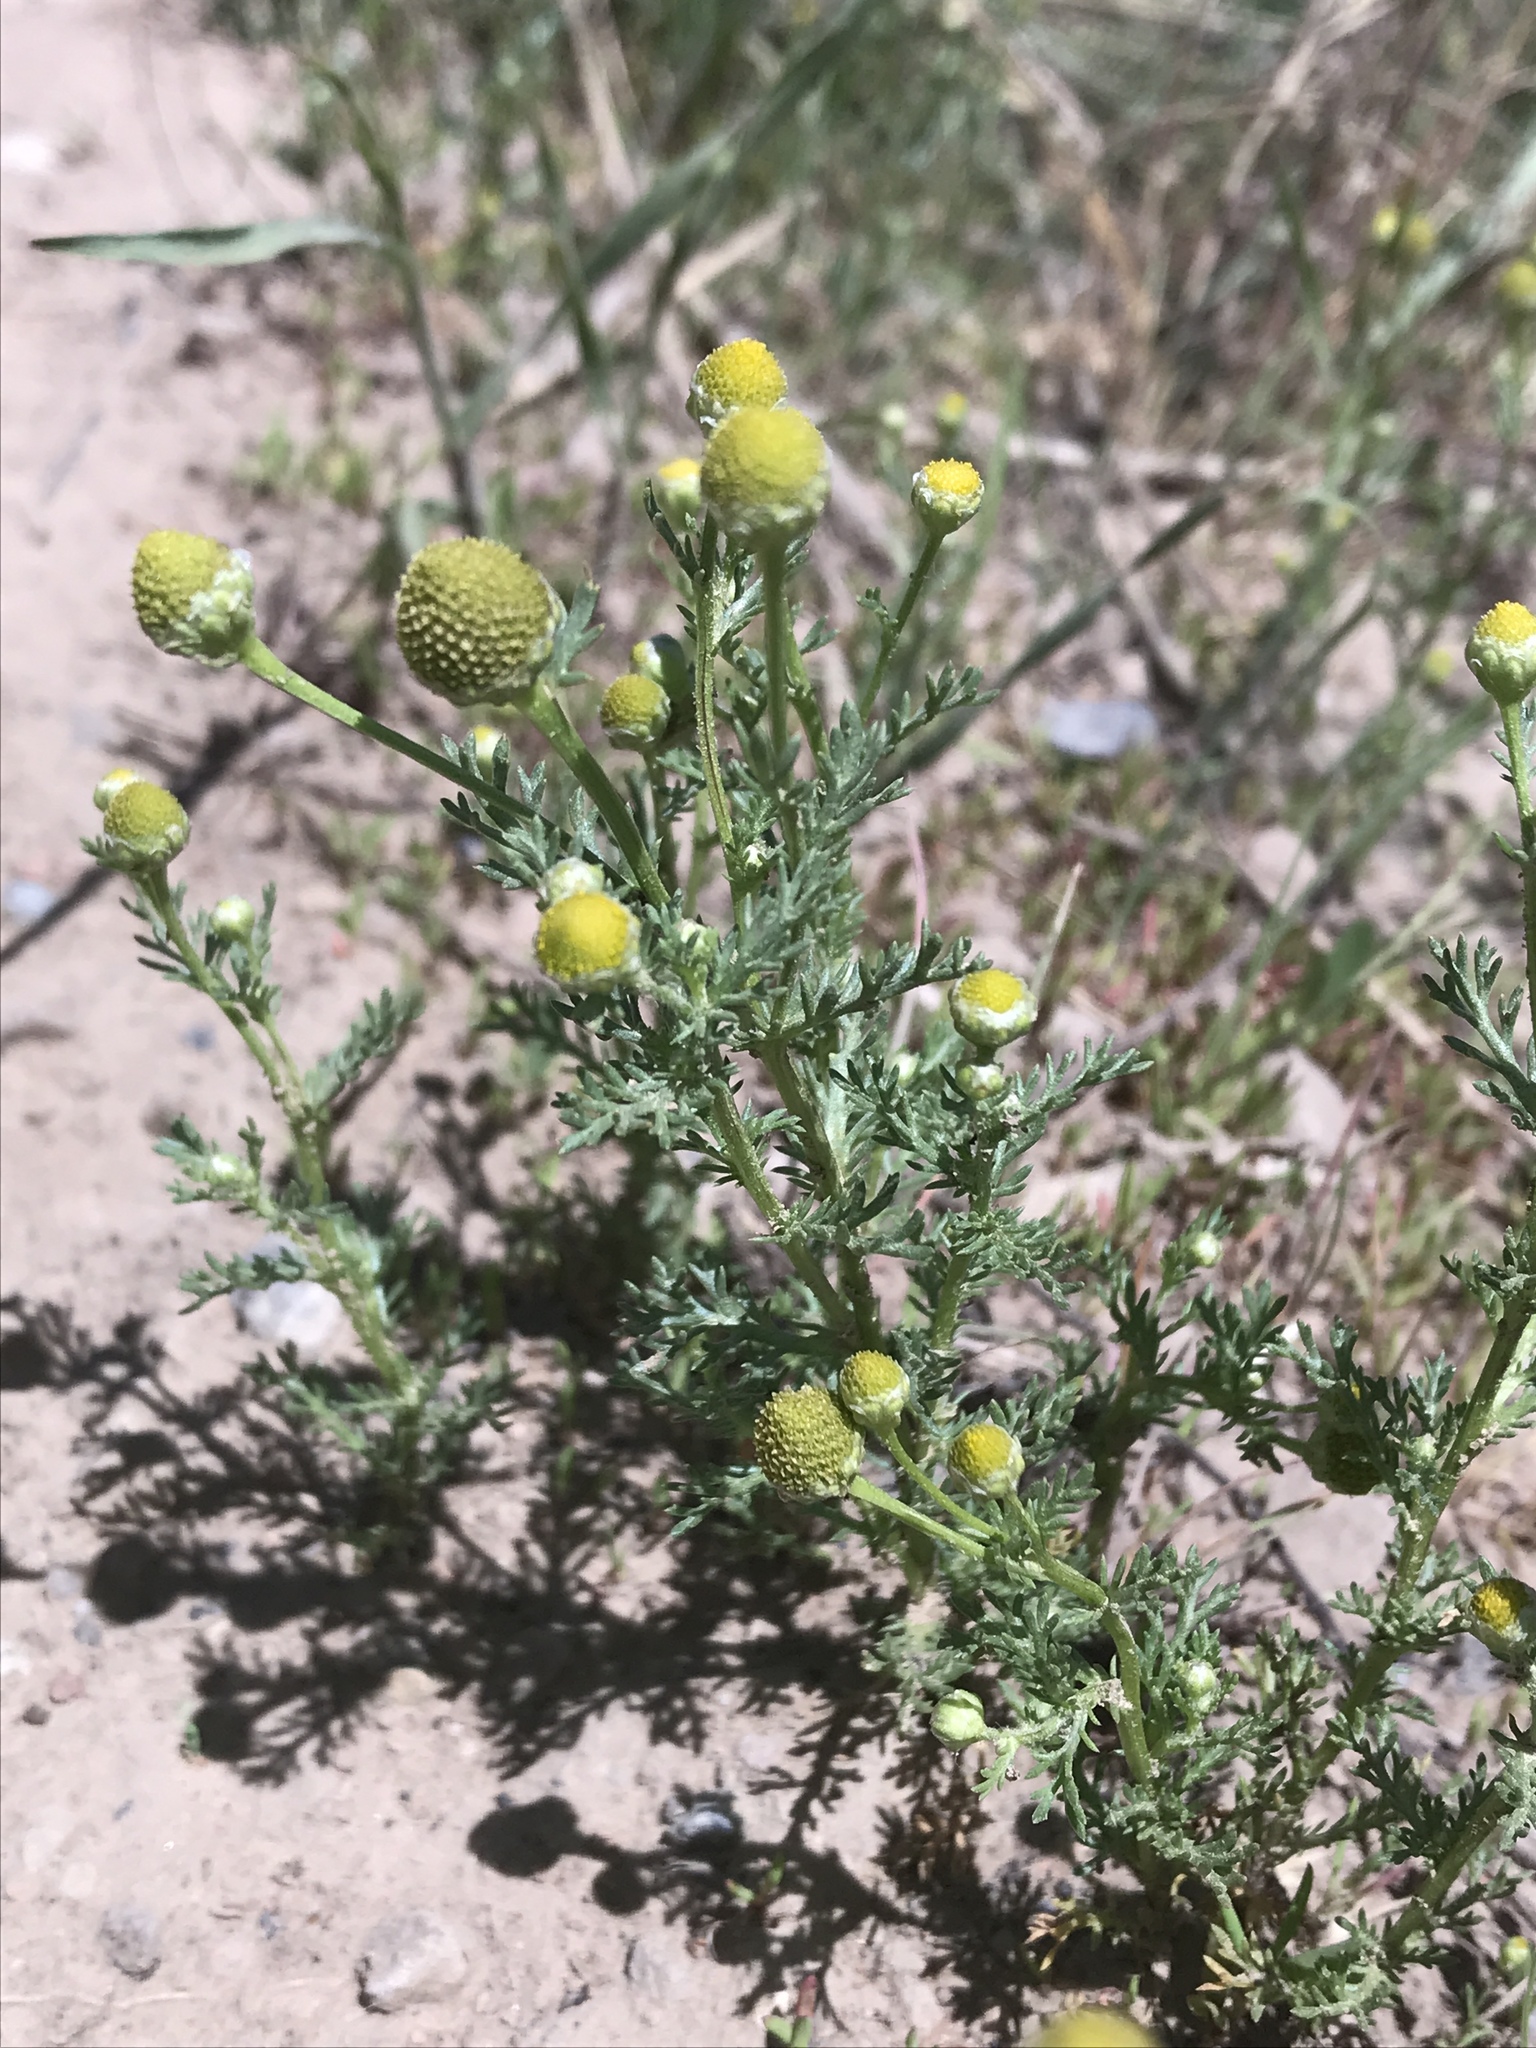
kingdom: Plantae
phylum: Tracheophyta
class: Magnoliopsida
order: Asterales
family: Asteraceae
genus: Matricaria
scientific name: Matricaria discoidea
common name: Disc mayweed
